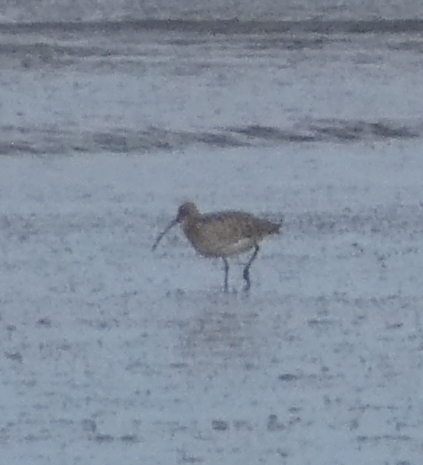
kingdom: Animalia
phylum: Chordata
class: Aves
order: Charadriiformes
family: Scolopacidae
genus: Numenius
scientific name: Numenius arquata
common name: Eurasian curlew
